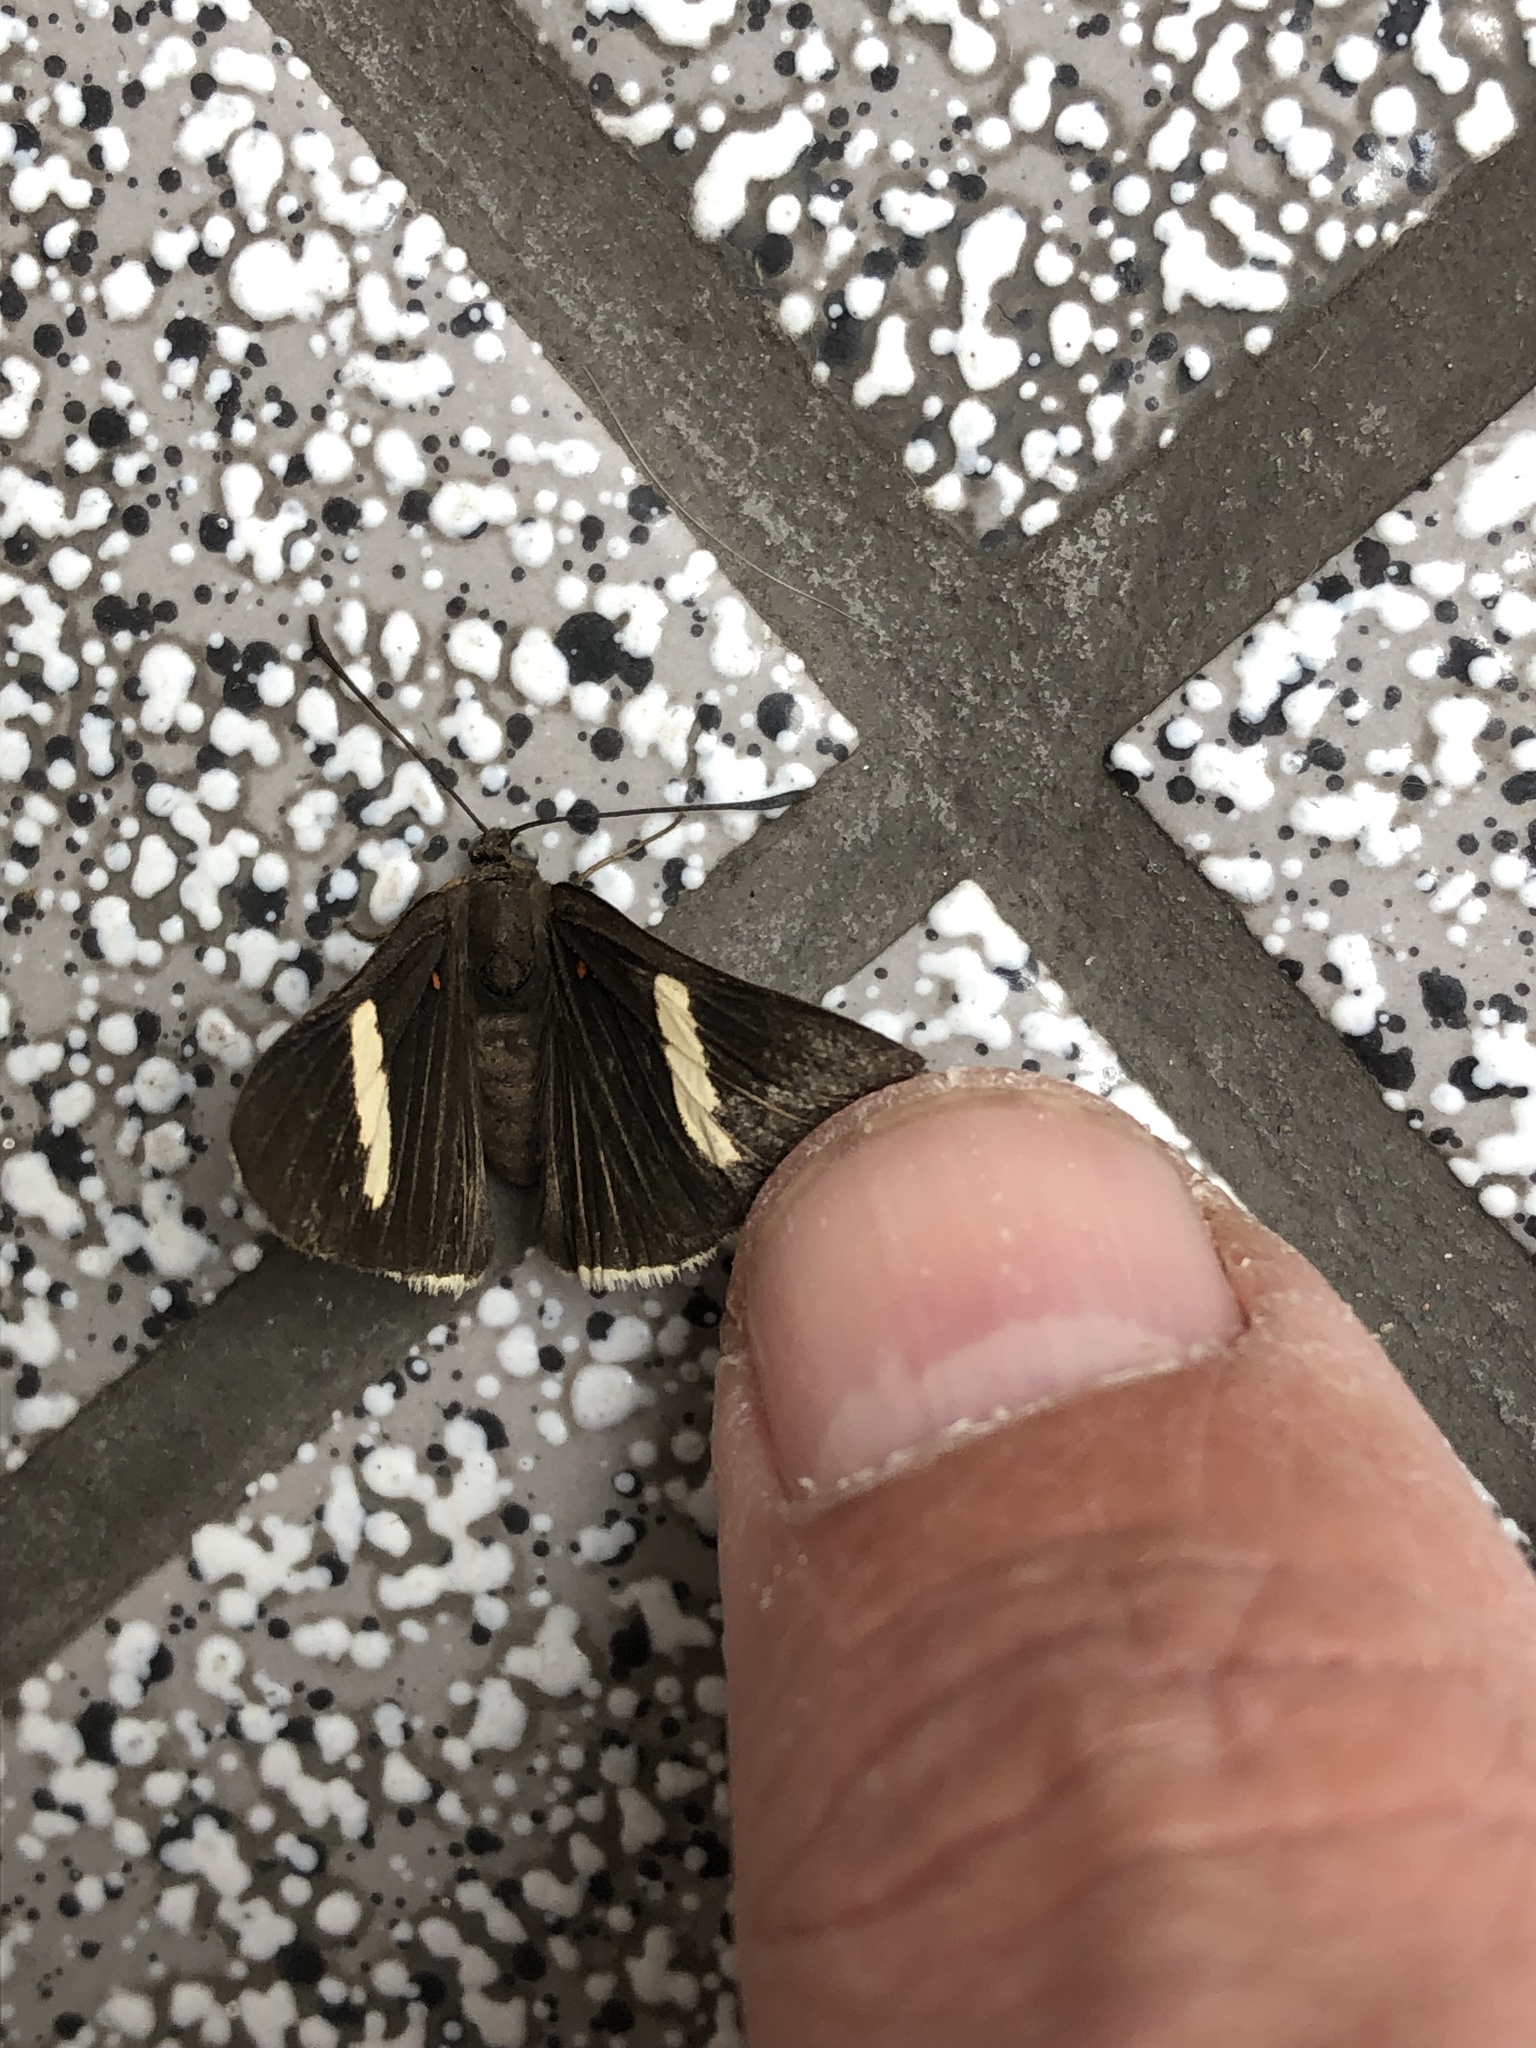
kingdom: Animalia
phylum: Arthropoda
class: Insecta
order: Lepidoptera
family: Lycaenidae
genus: Melanis
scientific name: Melanis
